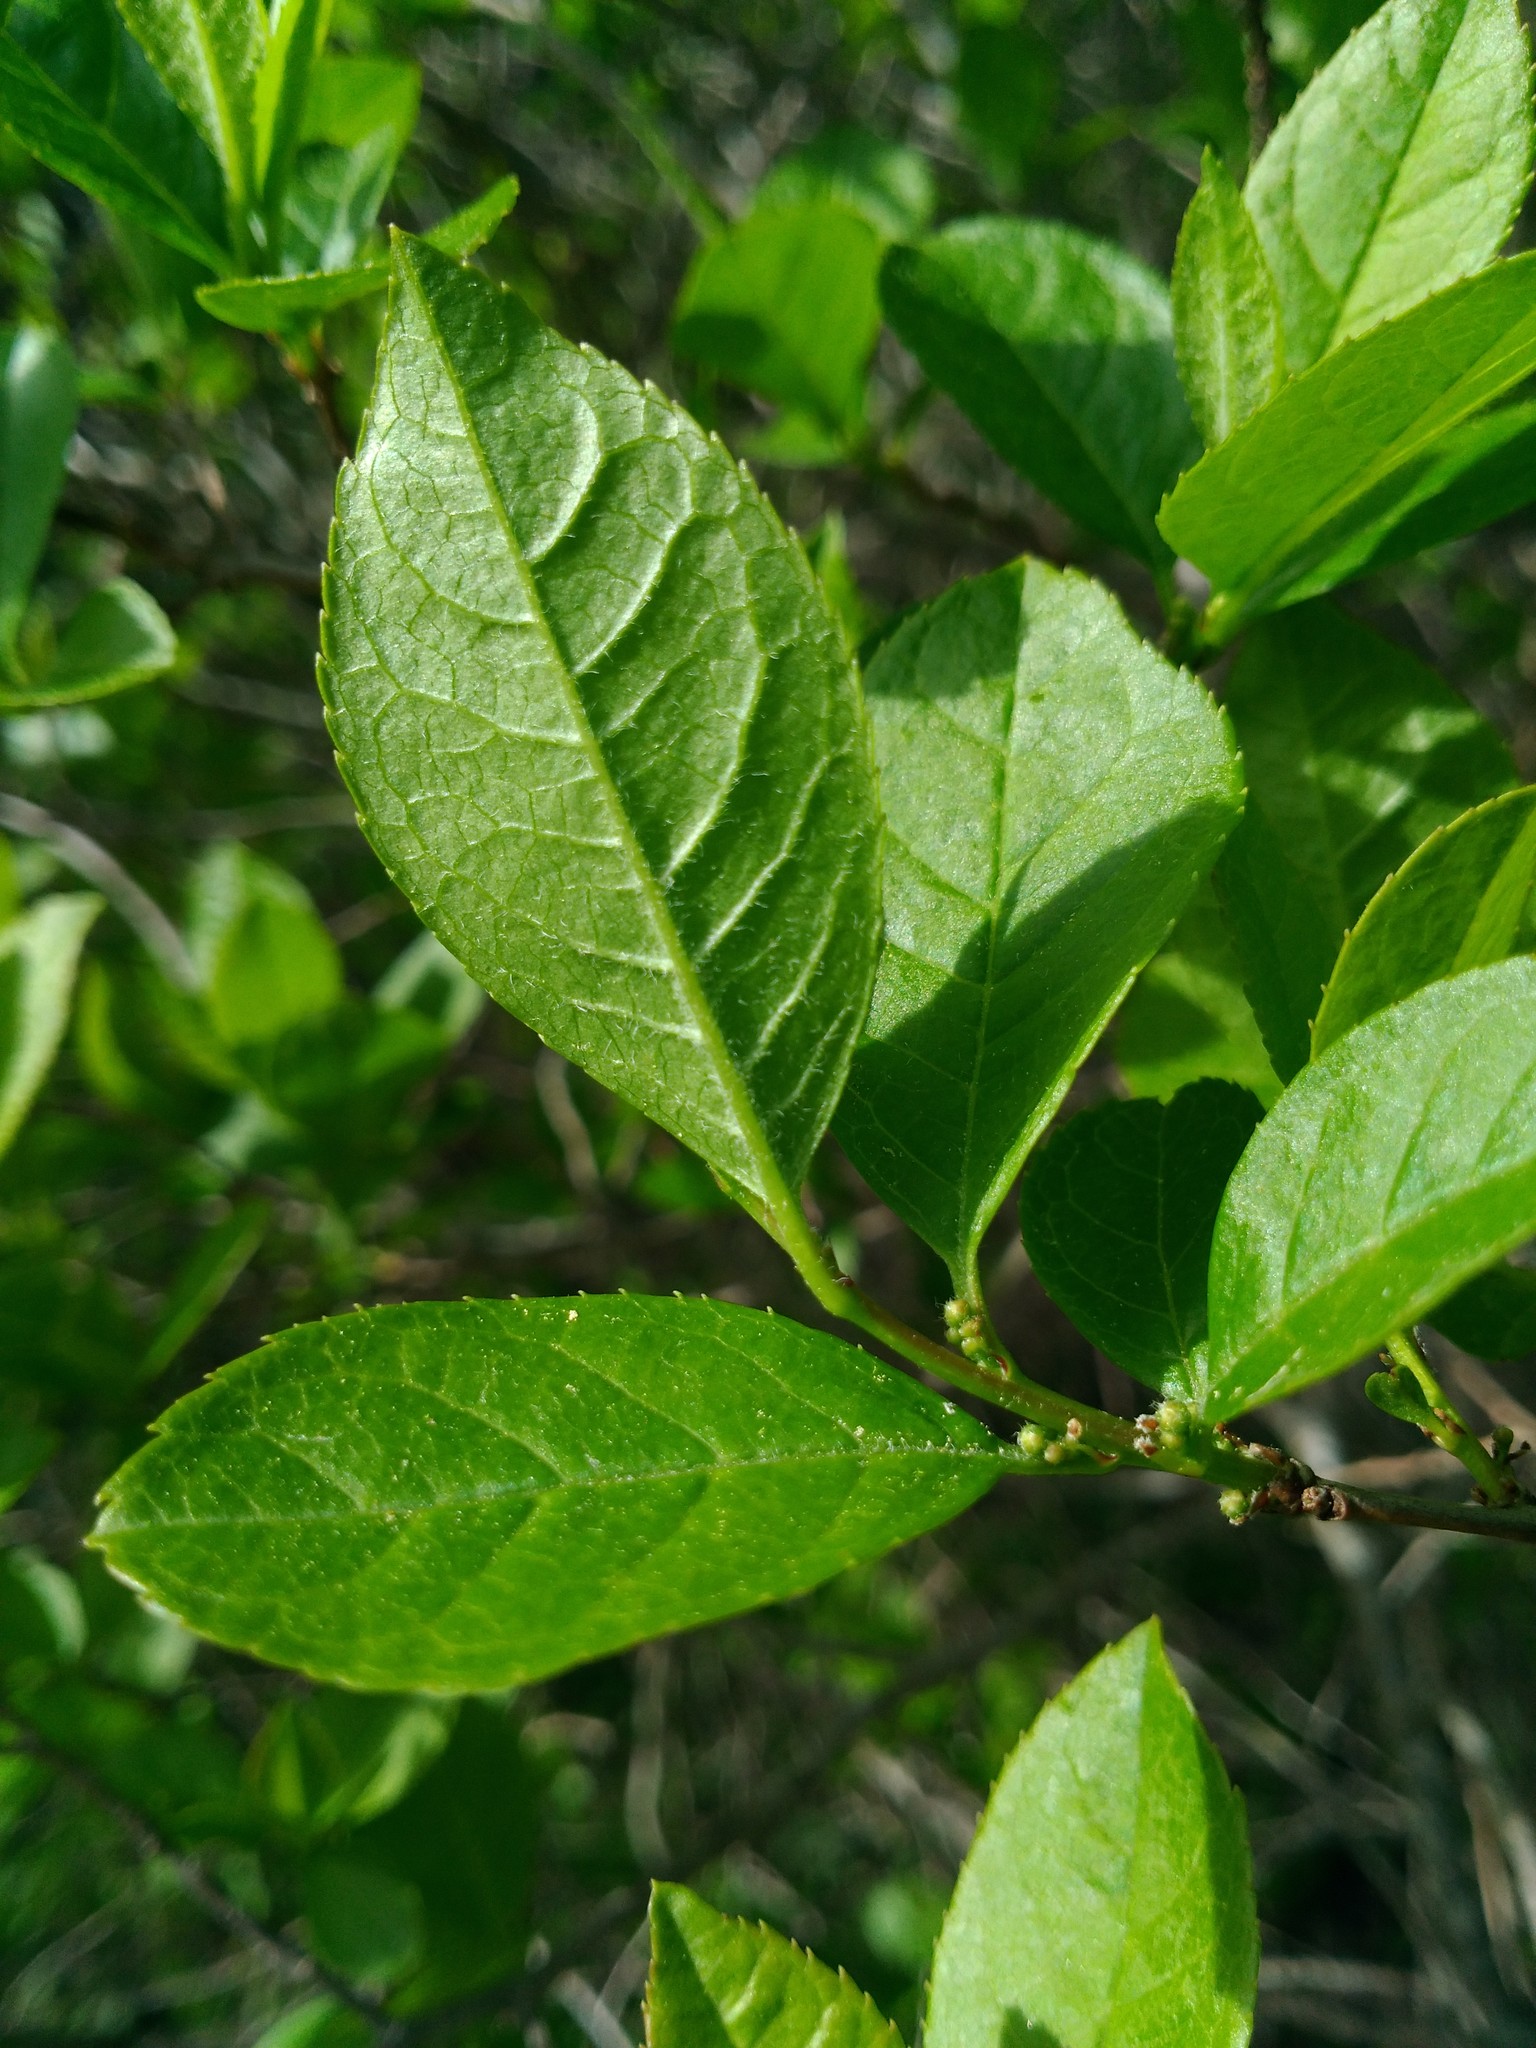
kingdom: Plantae
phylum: Tracheophyta
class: Magnoliopsida
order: Aquifoliales
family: Aquifoliaceae
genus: Ilex
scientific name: Ilex verticillata
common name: Virginia winterberry
